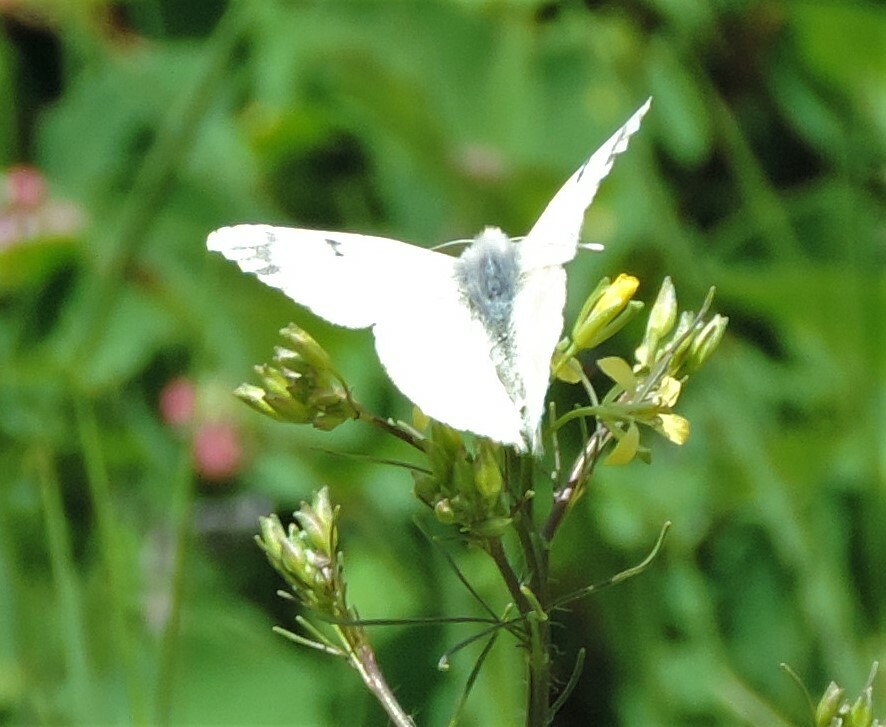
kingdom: Animalia
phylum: Arthropoda
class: Insecta
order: Lepidoptera
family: Pieridae
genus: Euchloe
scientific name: Euchloe ausonides
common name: Creamy marblewing
